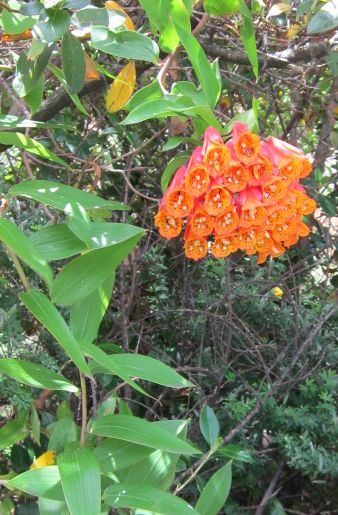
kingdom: Plantae
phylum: Tracheophyta
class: Liliopsida
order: Liliales
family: Alstroemeriaceae
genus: Bomarea
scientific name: Bomarea multiflora
